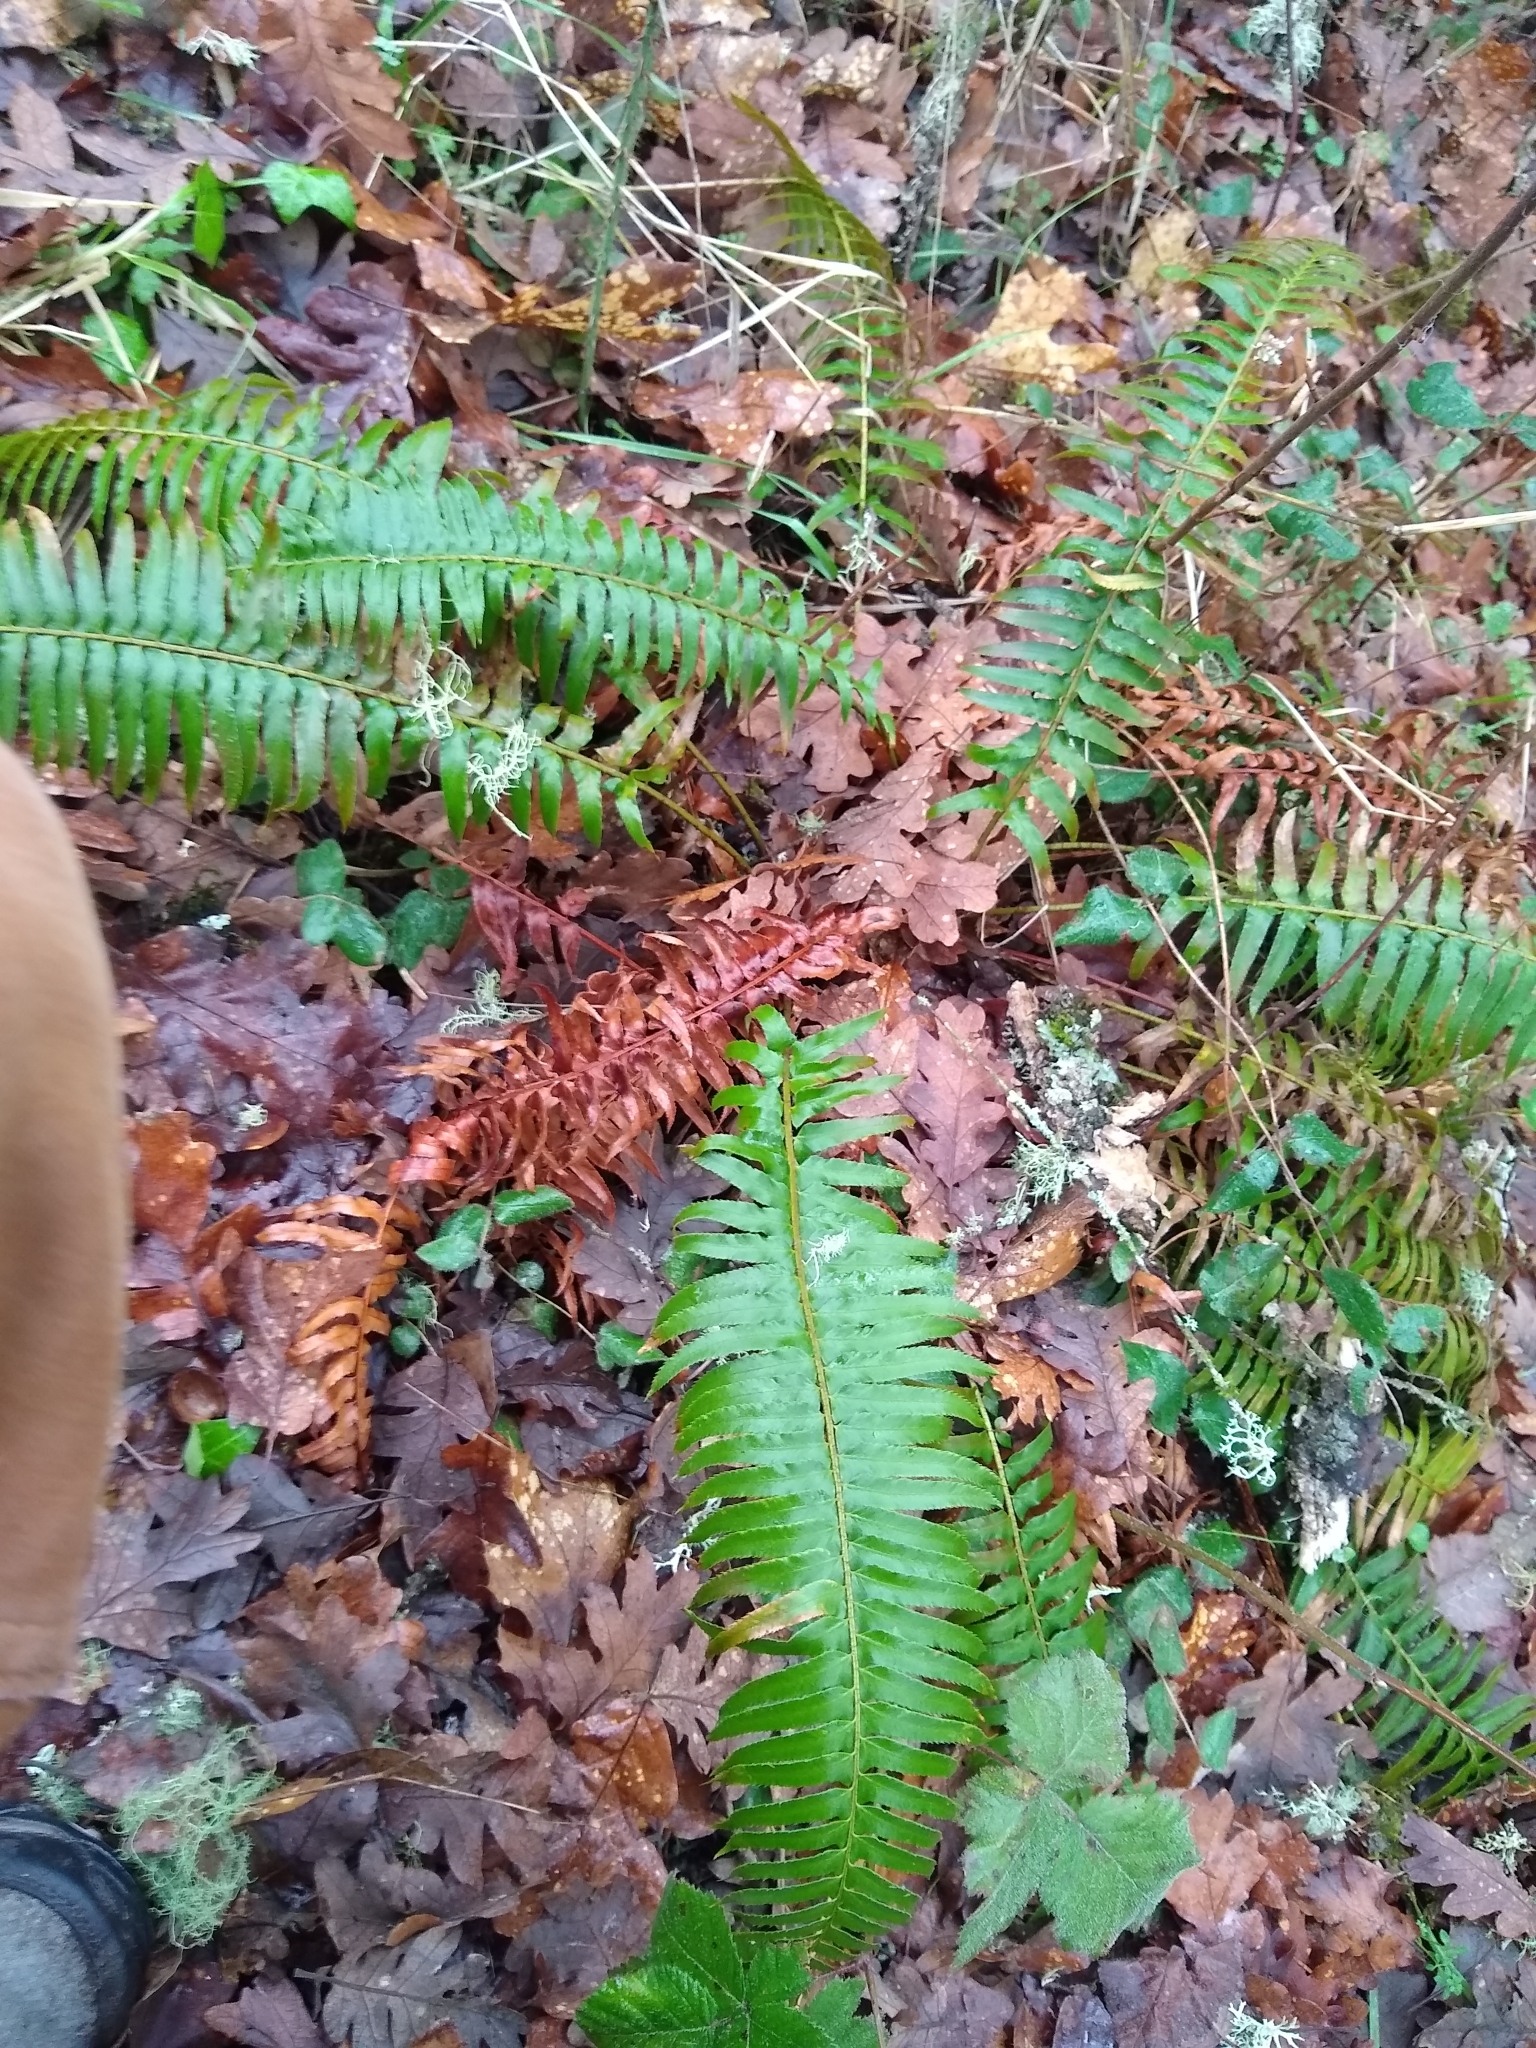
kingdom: Plantae
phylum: Tracheophyta
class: Polypodiopsida
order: Polypodiales
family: Dryopteridaceae
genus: Polystichum
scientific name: Polystichum munitum
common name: Western sword-fern
